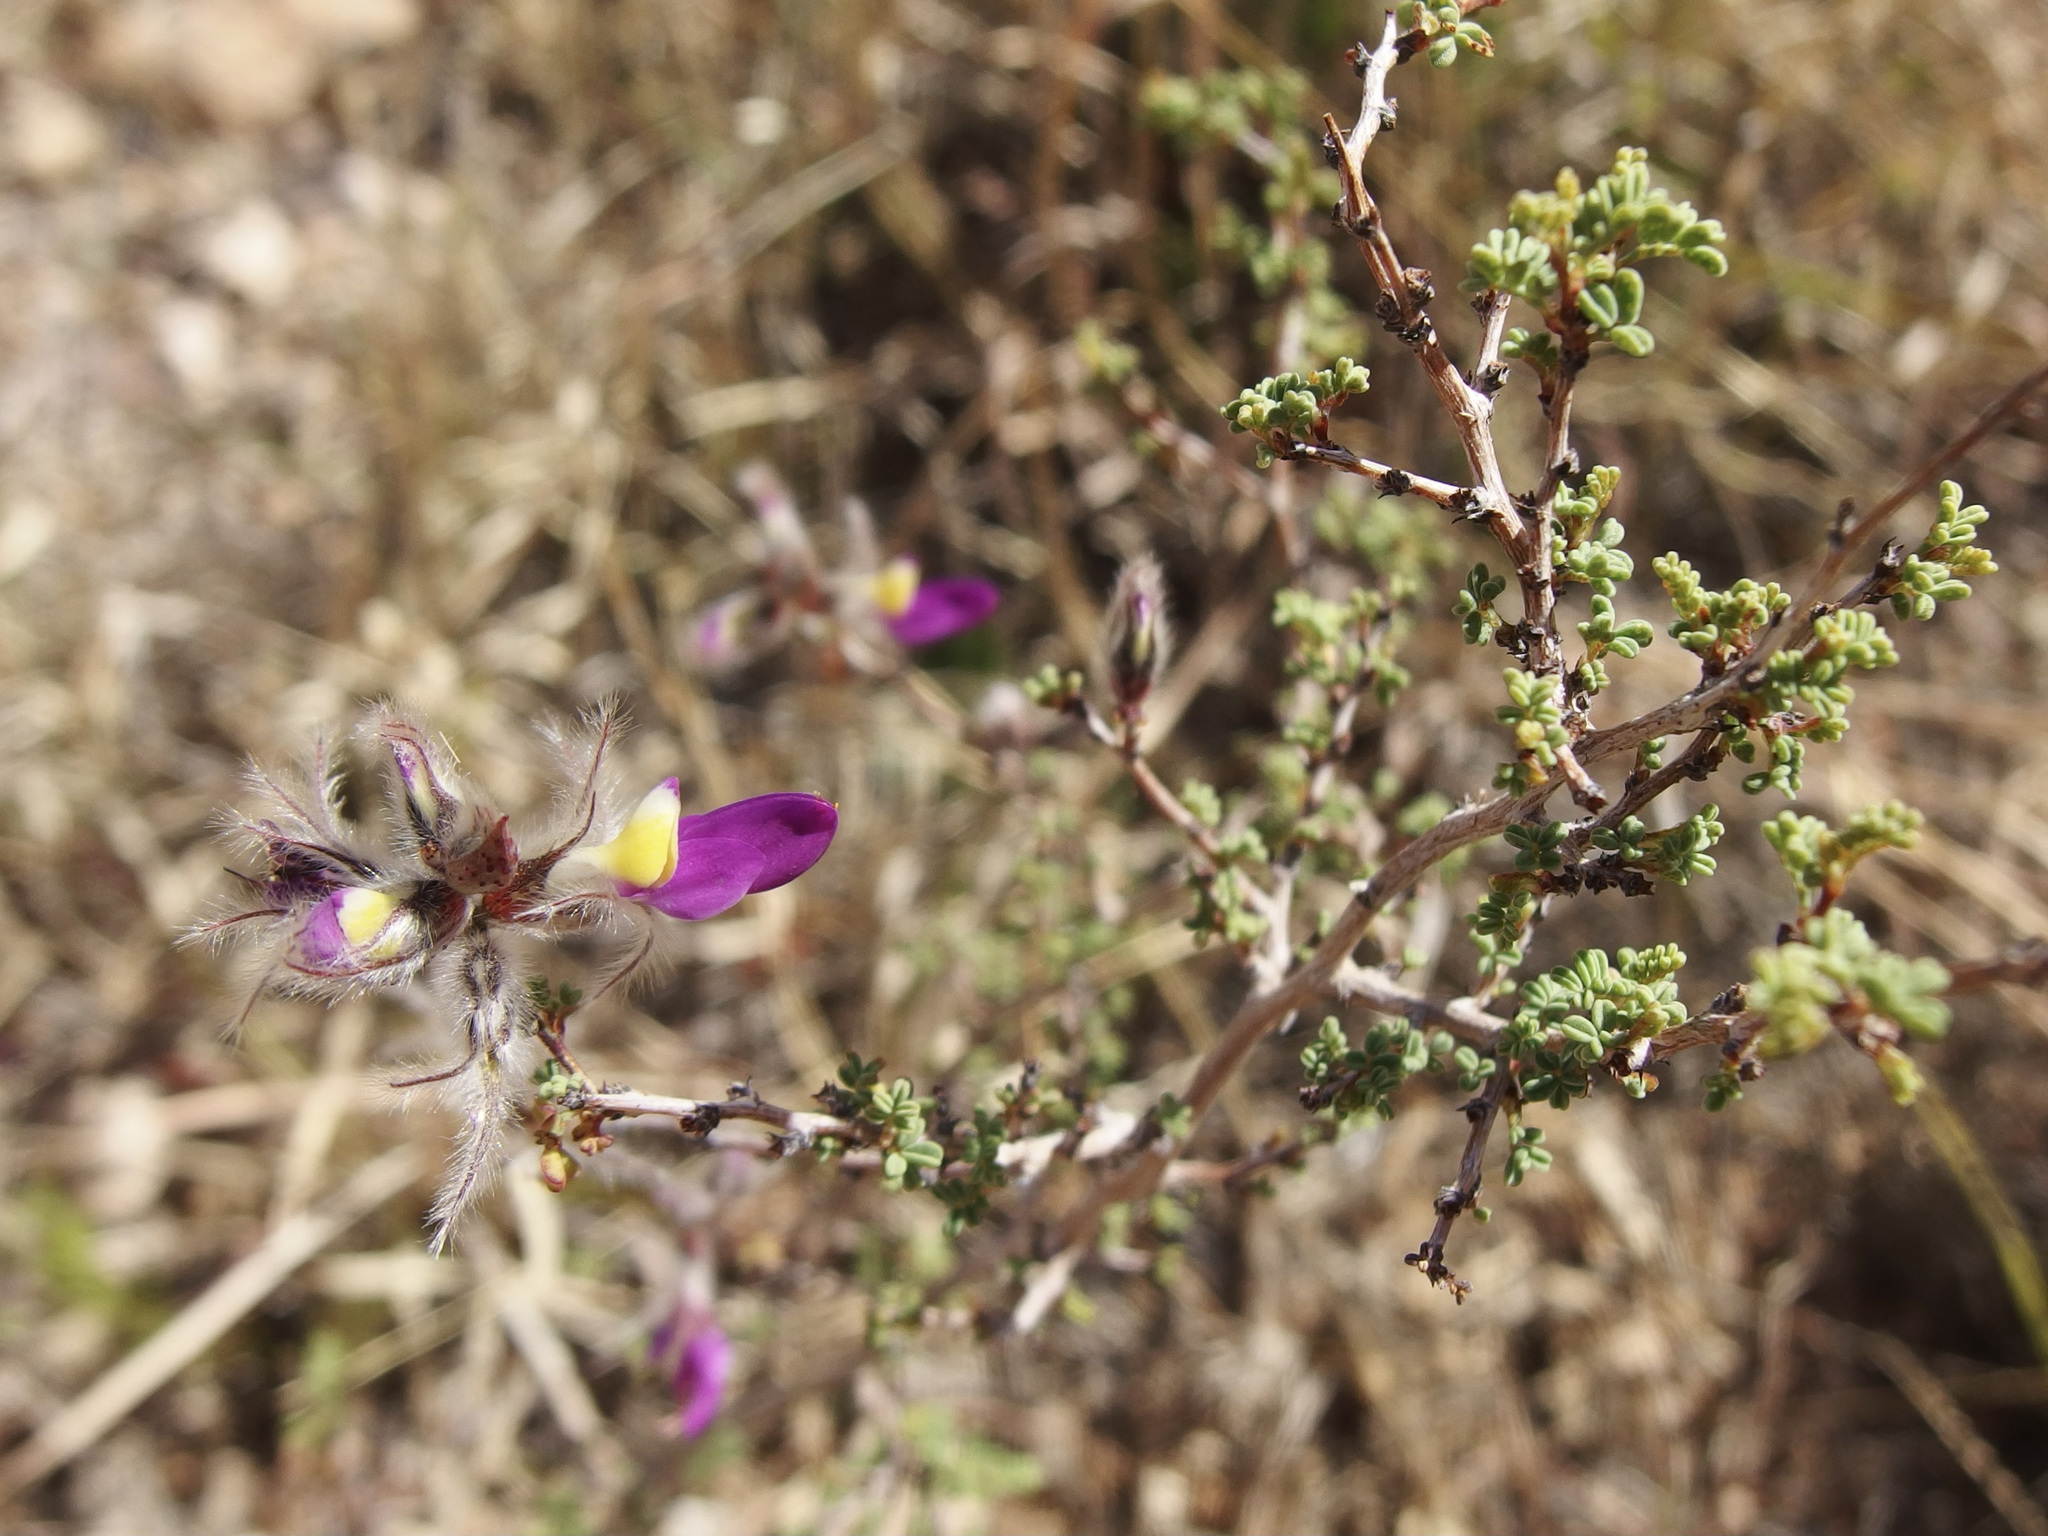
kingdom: Plantae
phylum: Tracheophyta
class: Magnoliopsida
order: Fabales
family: Fabaceae
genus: Dalea
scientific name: Dalea formosa
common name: Feather-plume dalea
